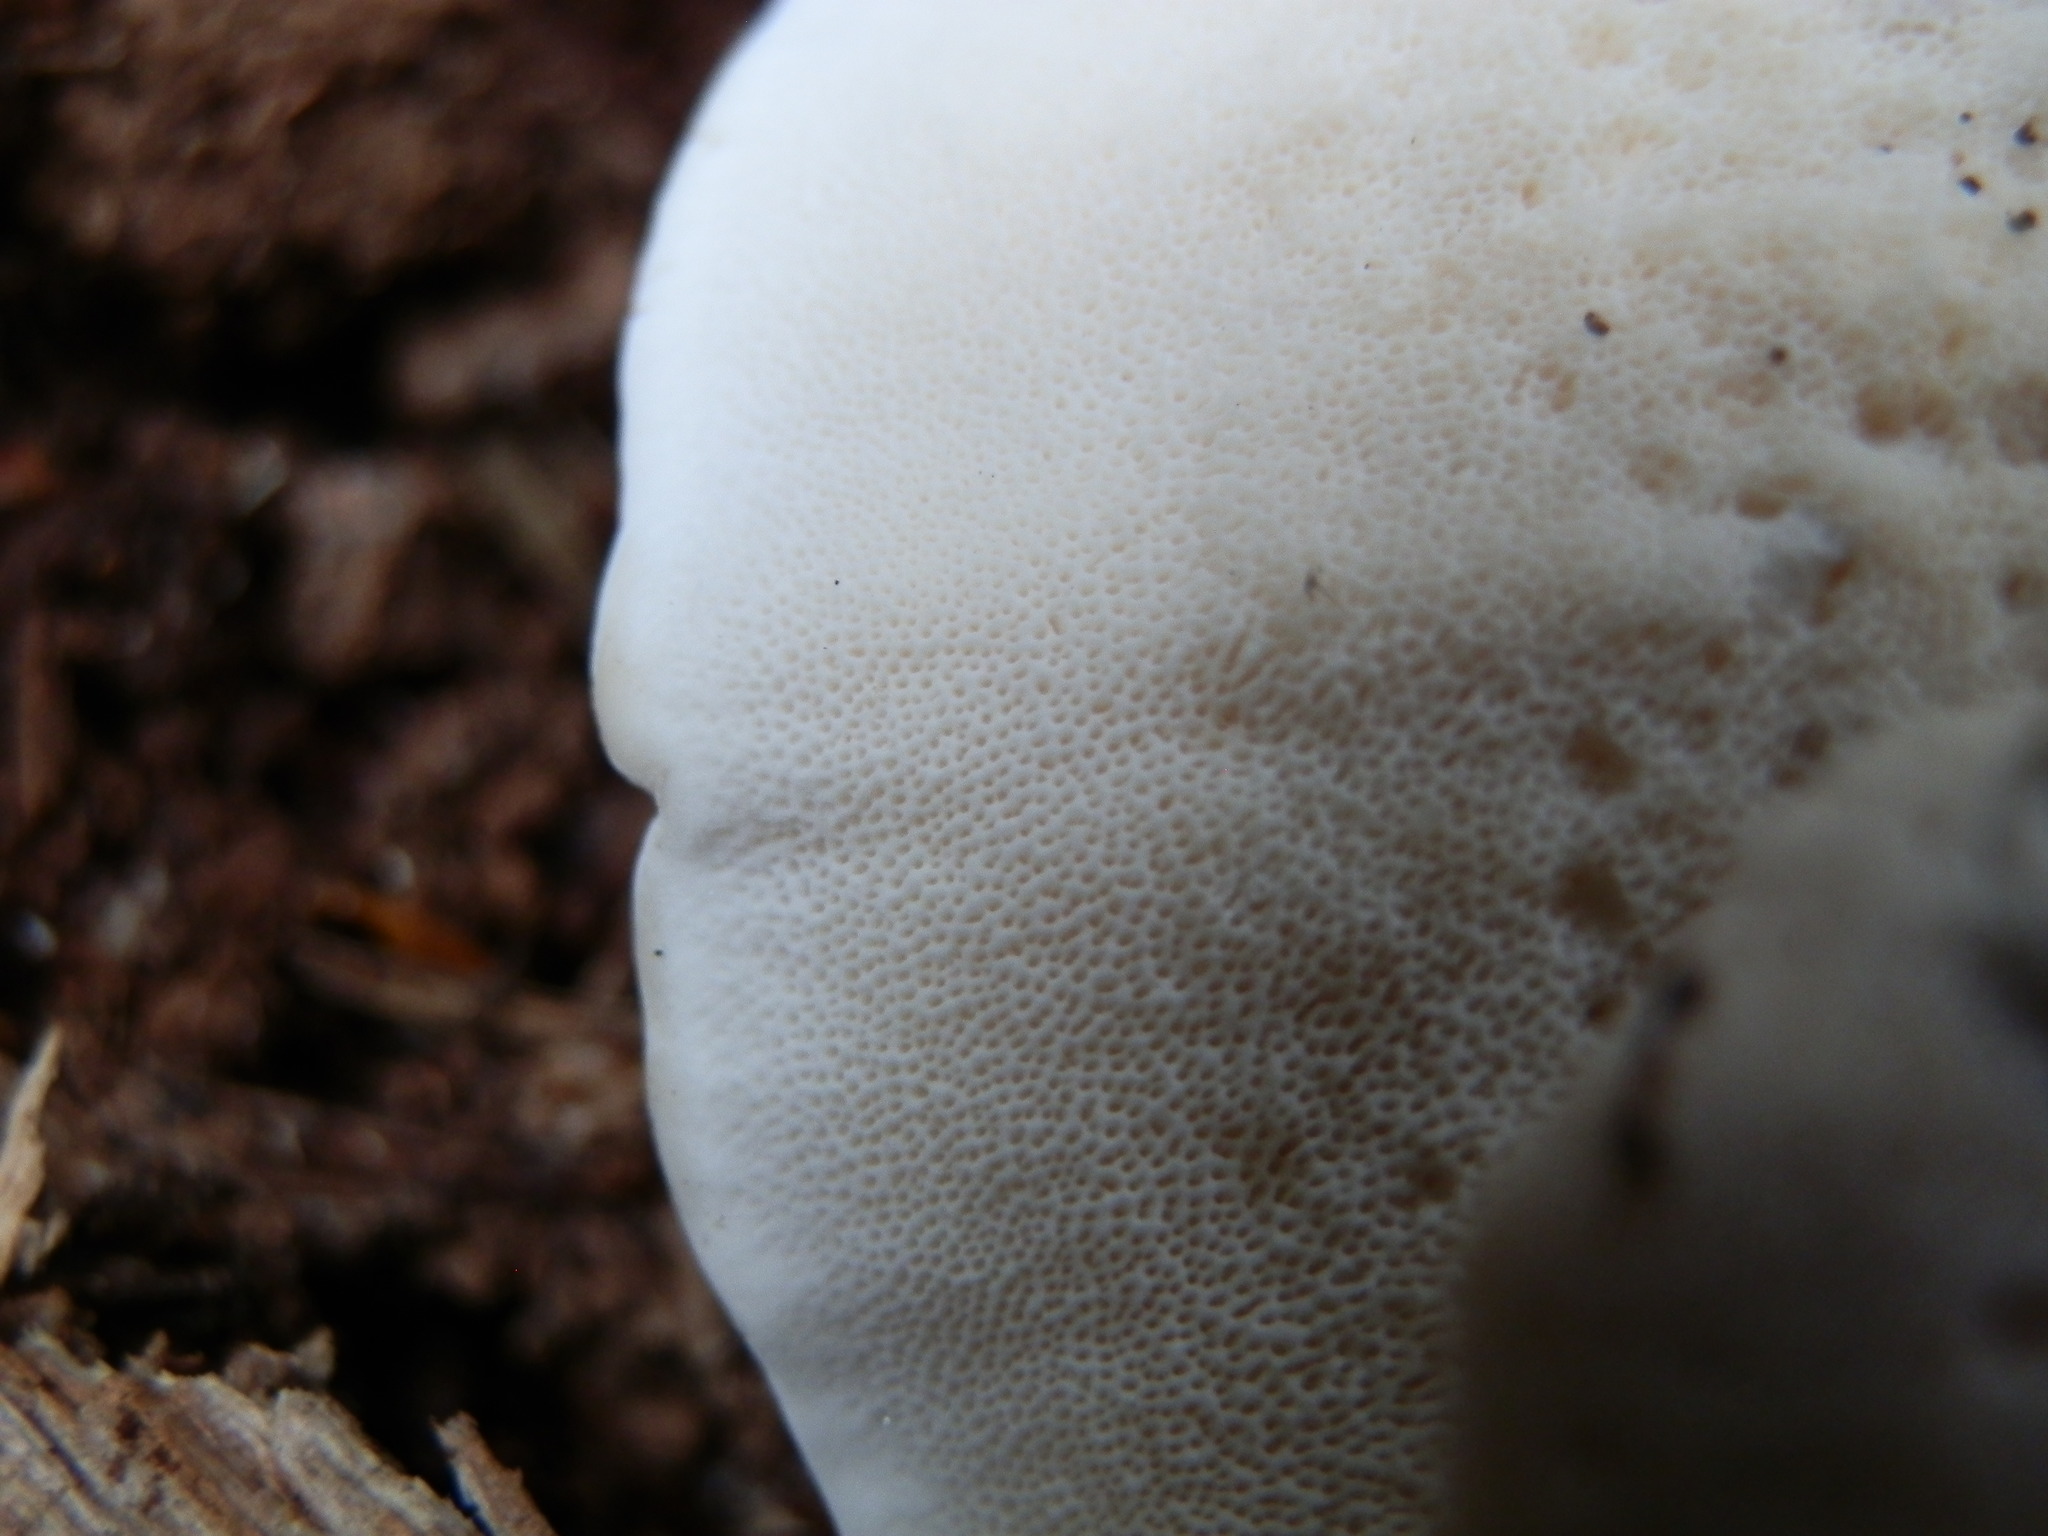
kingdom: Fungi
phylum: Basidiomycota
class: Agaricomycetes
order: Polyporales
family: Polyporaceae
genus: Trametes
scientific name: Trametes versicolor
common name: Turkeytail
